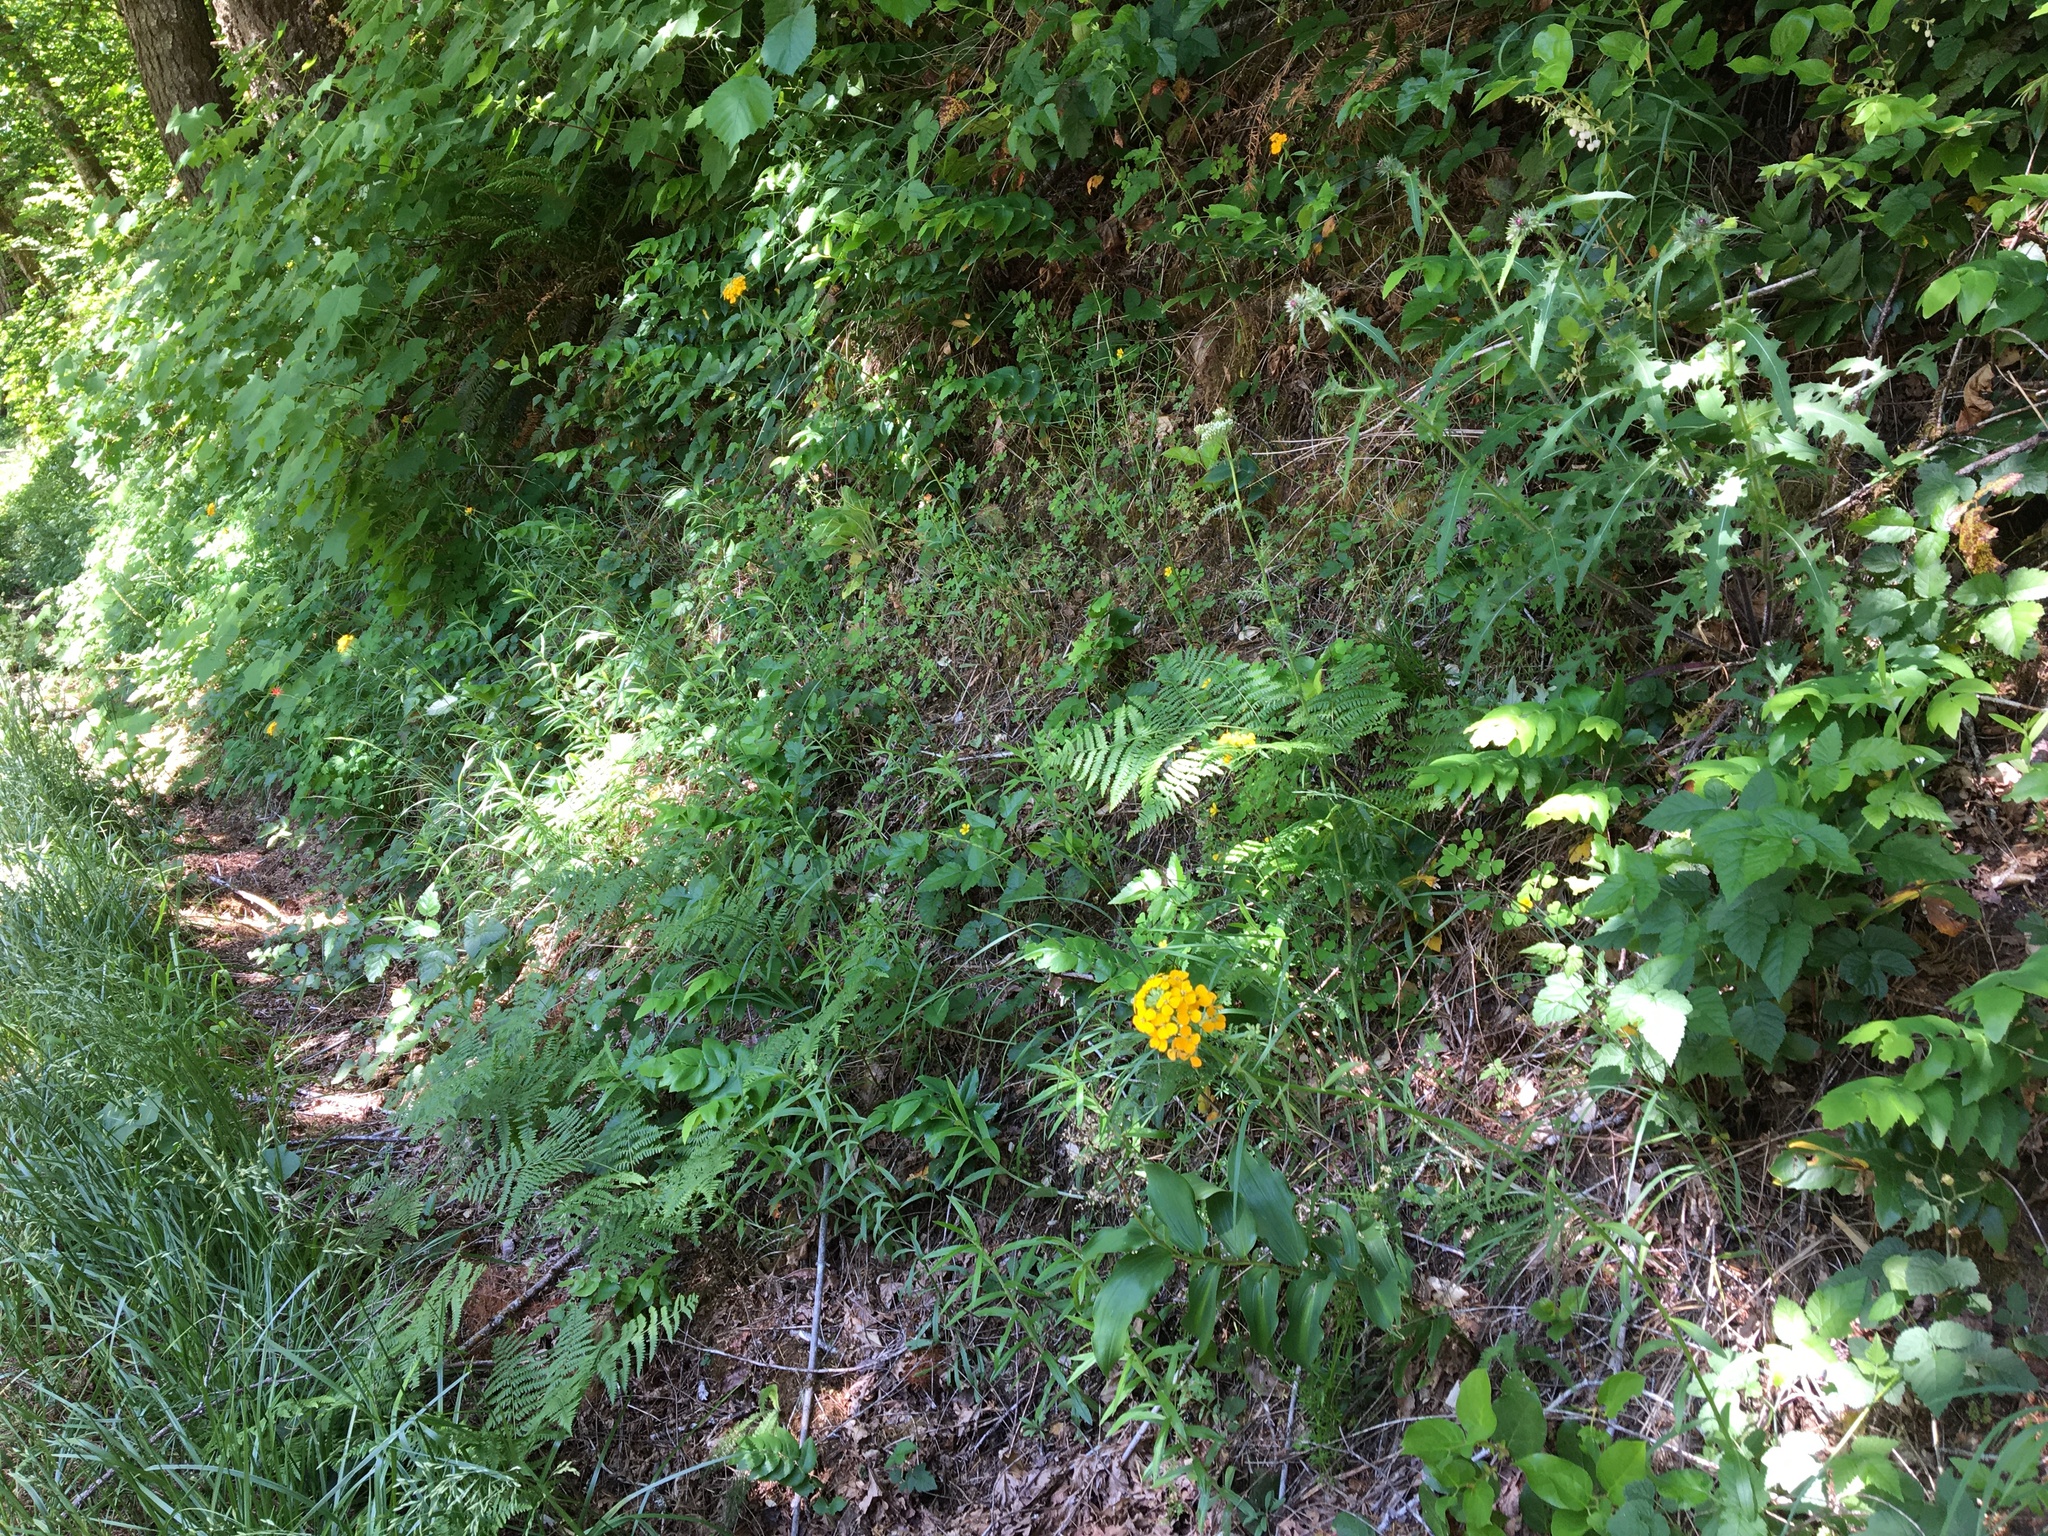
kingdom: Plantae
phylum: Tracheophyta
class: Magnoliopsida
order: Brassicales
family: Brassicaceae
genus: Erysimum
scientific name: Erysimum capitatum
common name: Western wallflower
